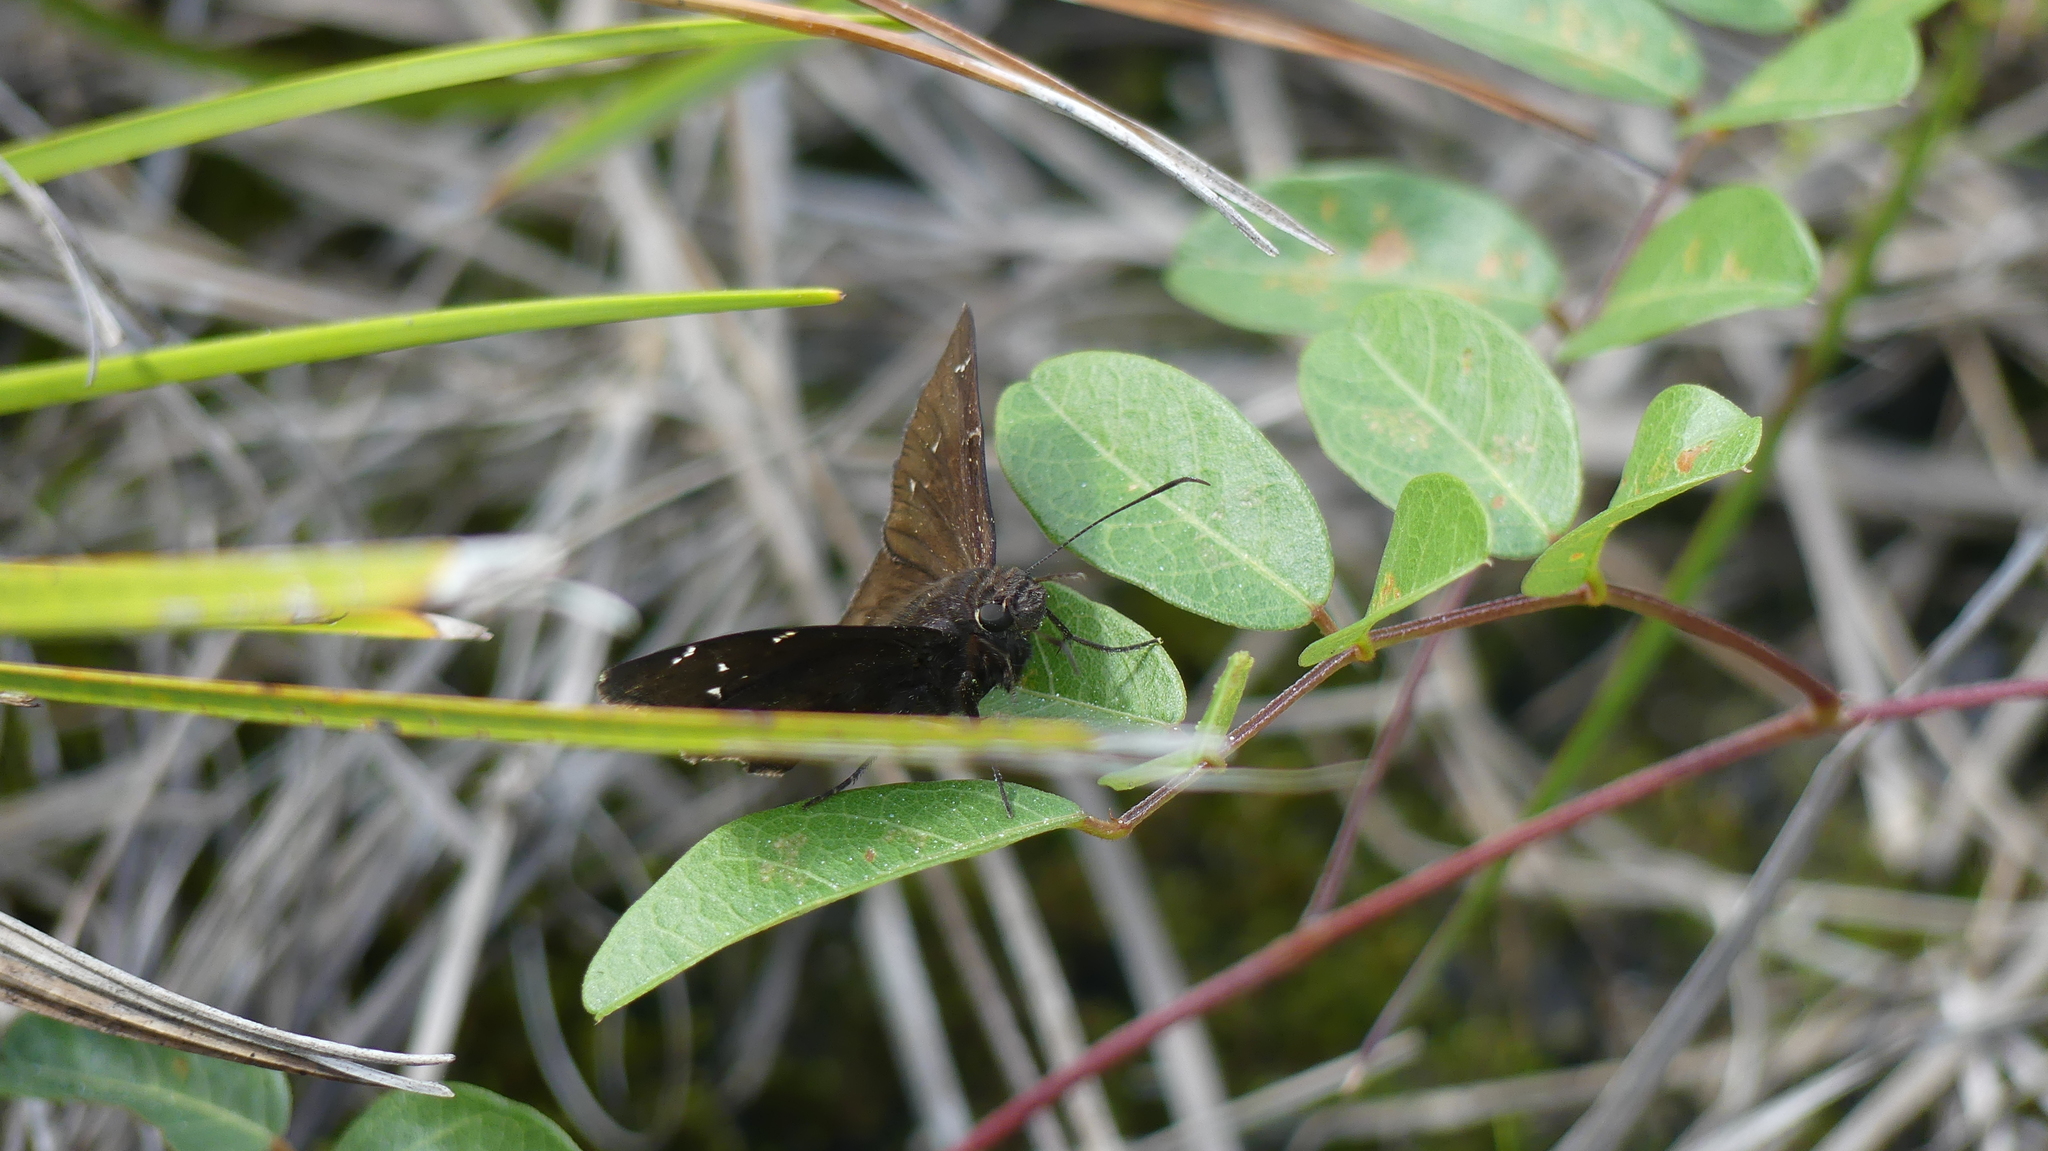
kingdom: Animalia
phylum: Arthropoda
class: Insecta
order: Lepidoptera
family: Hesperiidae
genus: Thorybes
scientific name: Thorybes pylades
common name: Northern cloudywing
